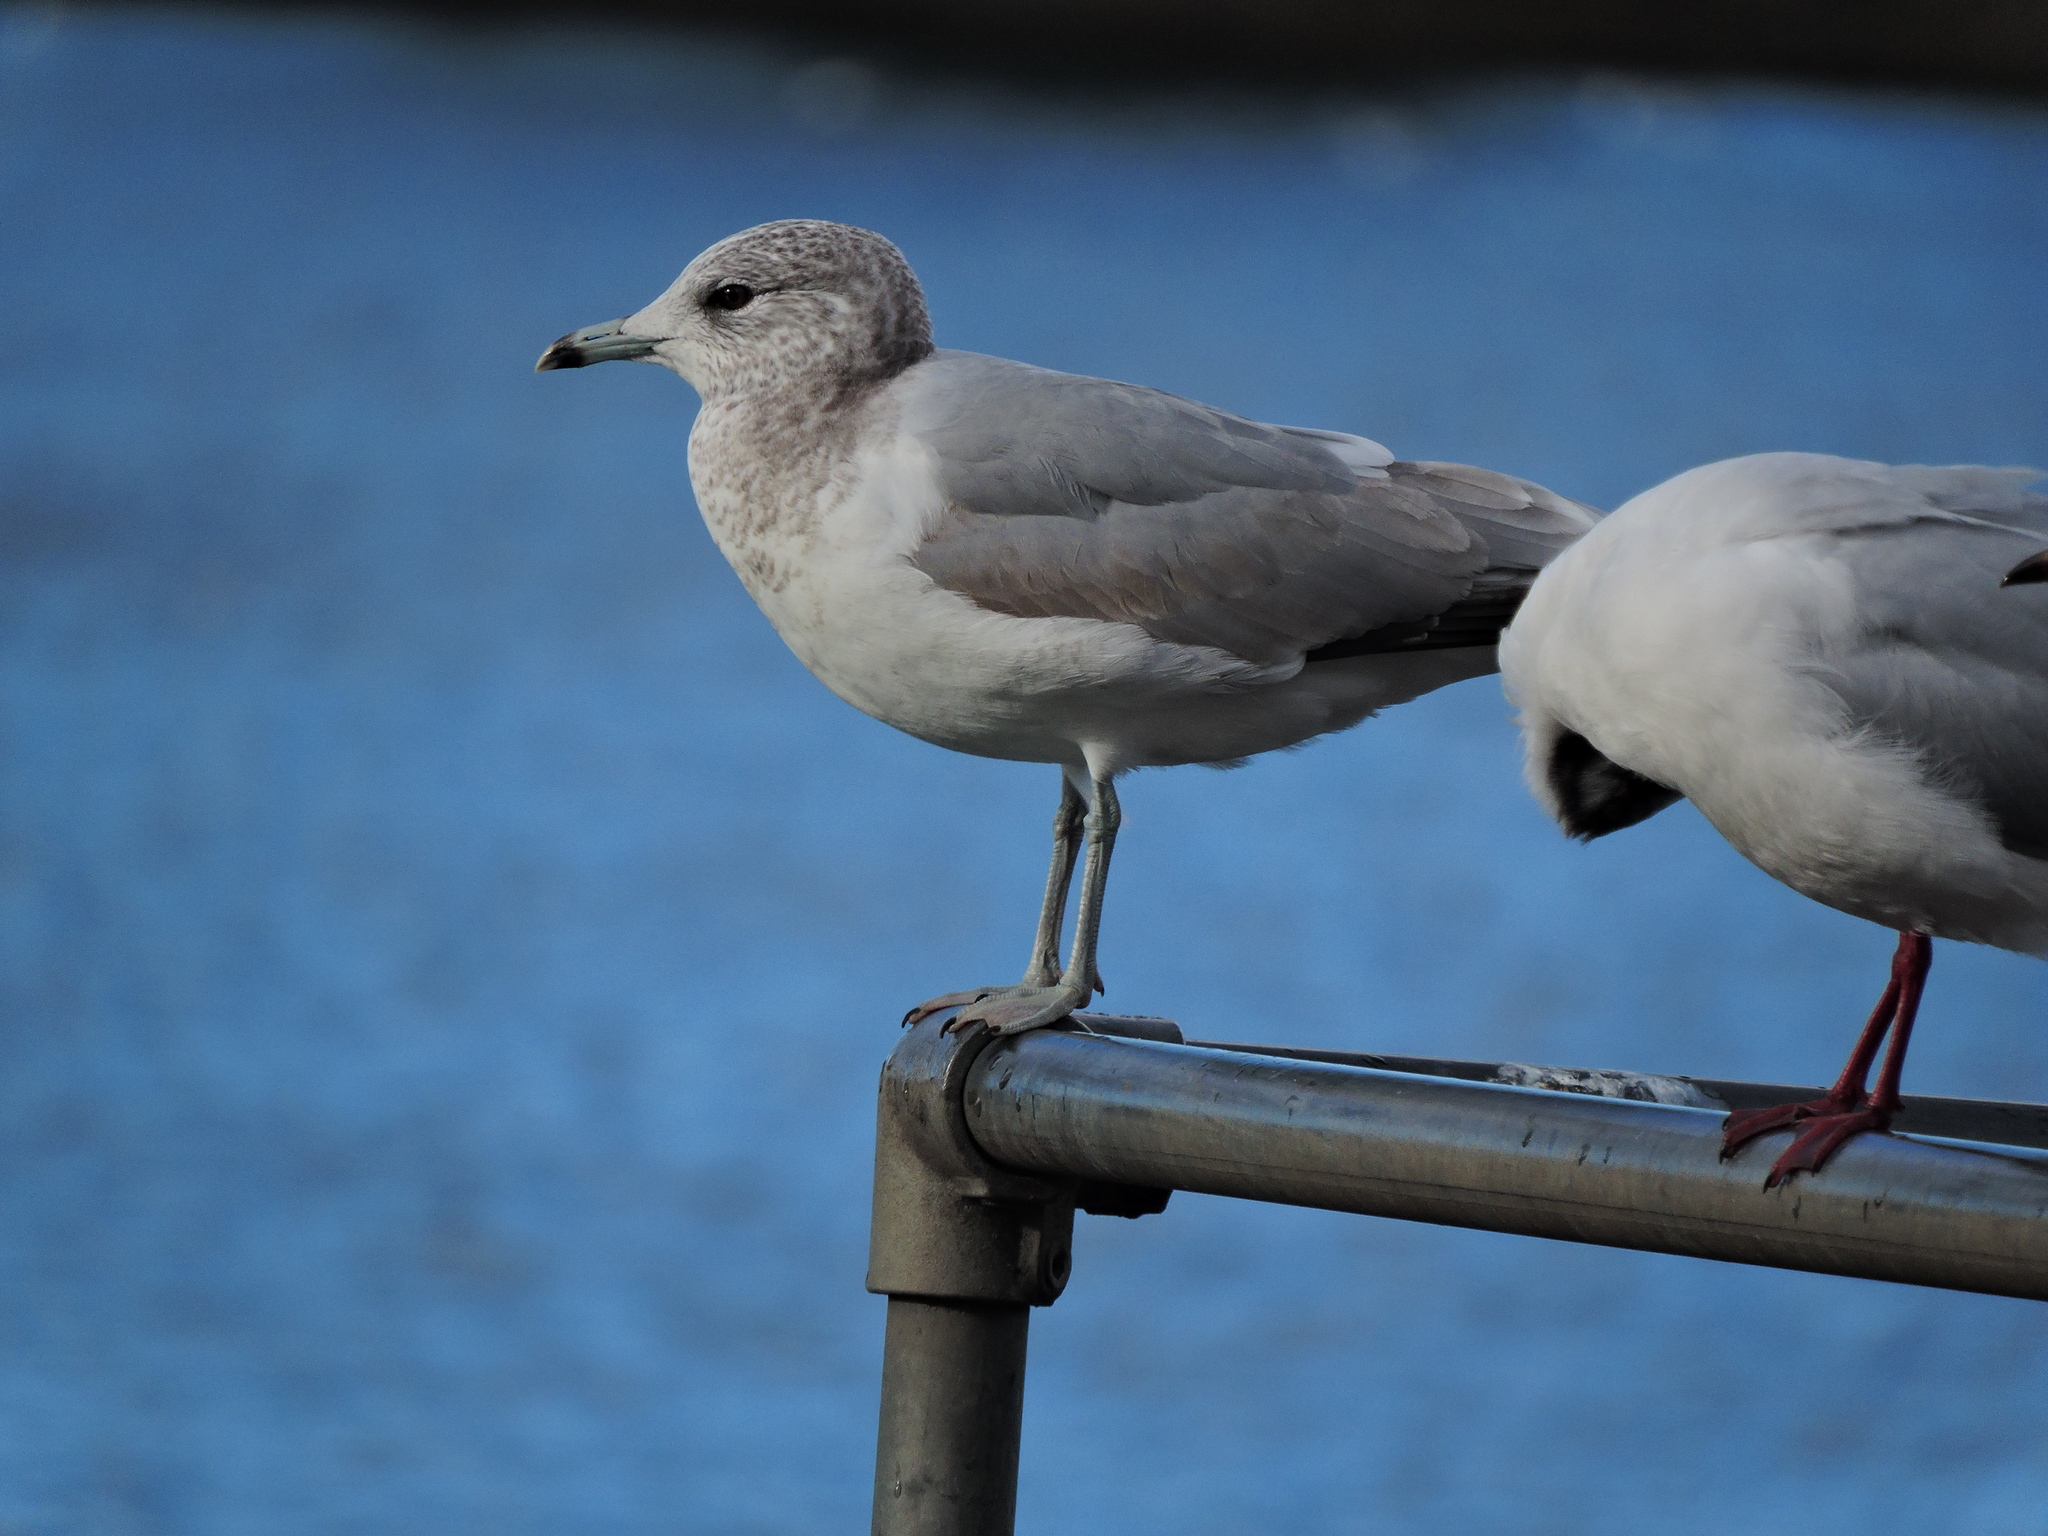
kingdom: Animalia
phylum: Chordata
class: Aves
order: Charadriiformes
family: Laridae
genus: Larus
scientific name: Larus canus
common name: Mew gull
